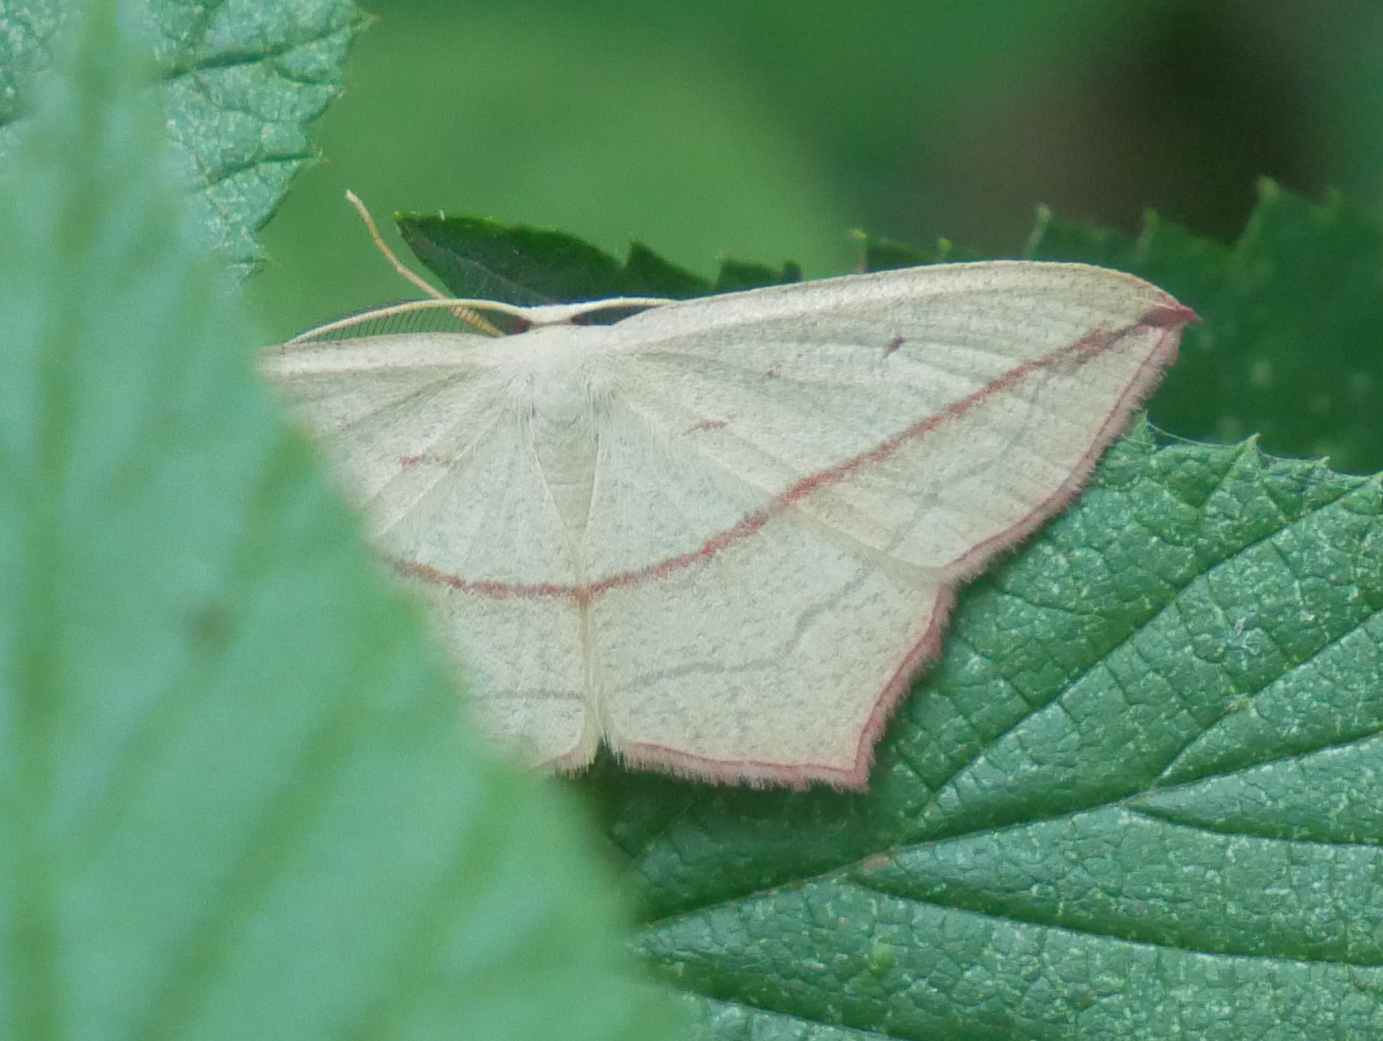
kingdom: Animalia
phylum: Arthropoda
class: Insecta
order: Lepidoptera
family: Geometridae
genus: Timandra
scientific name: Timandra comae
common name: Blood-vein
